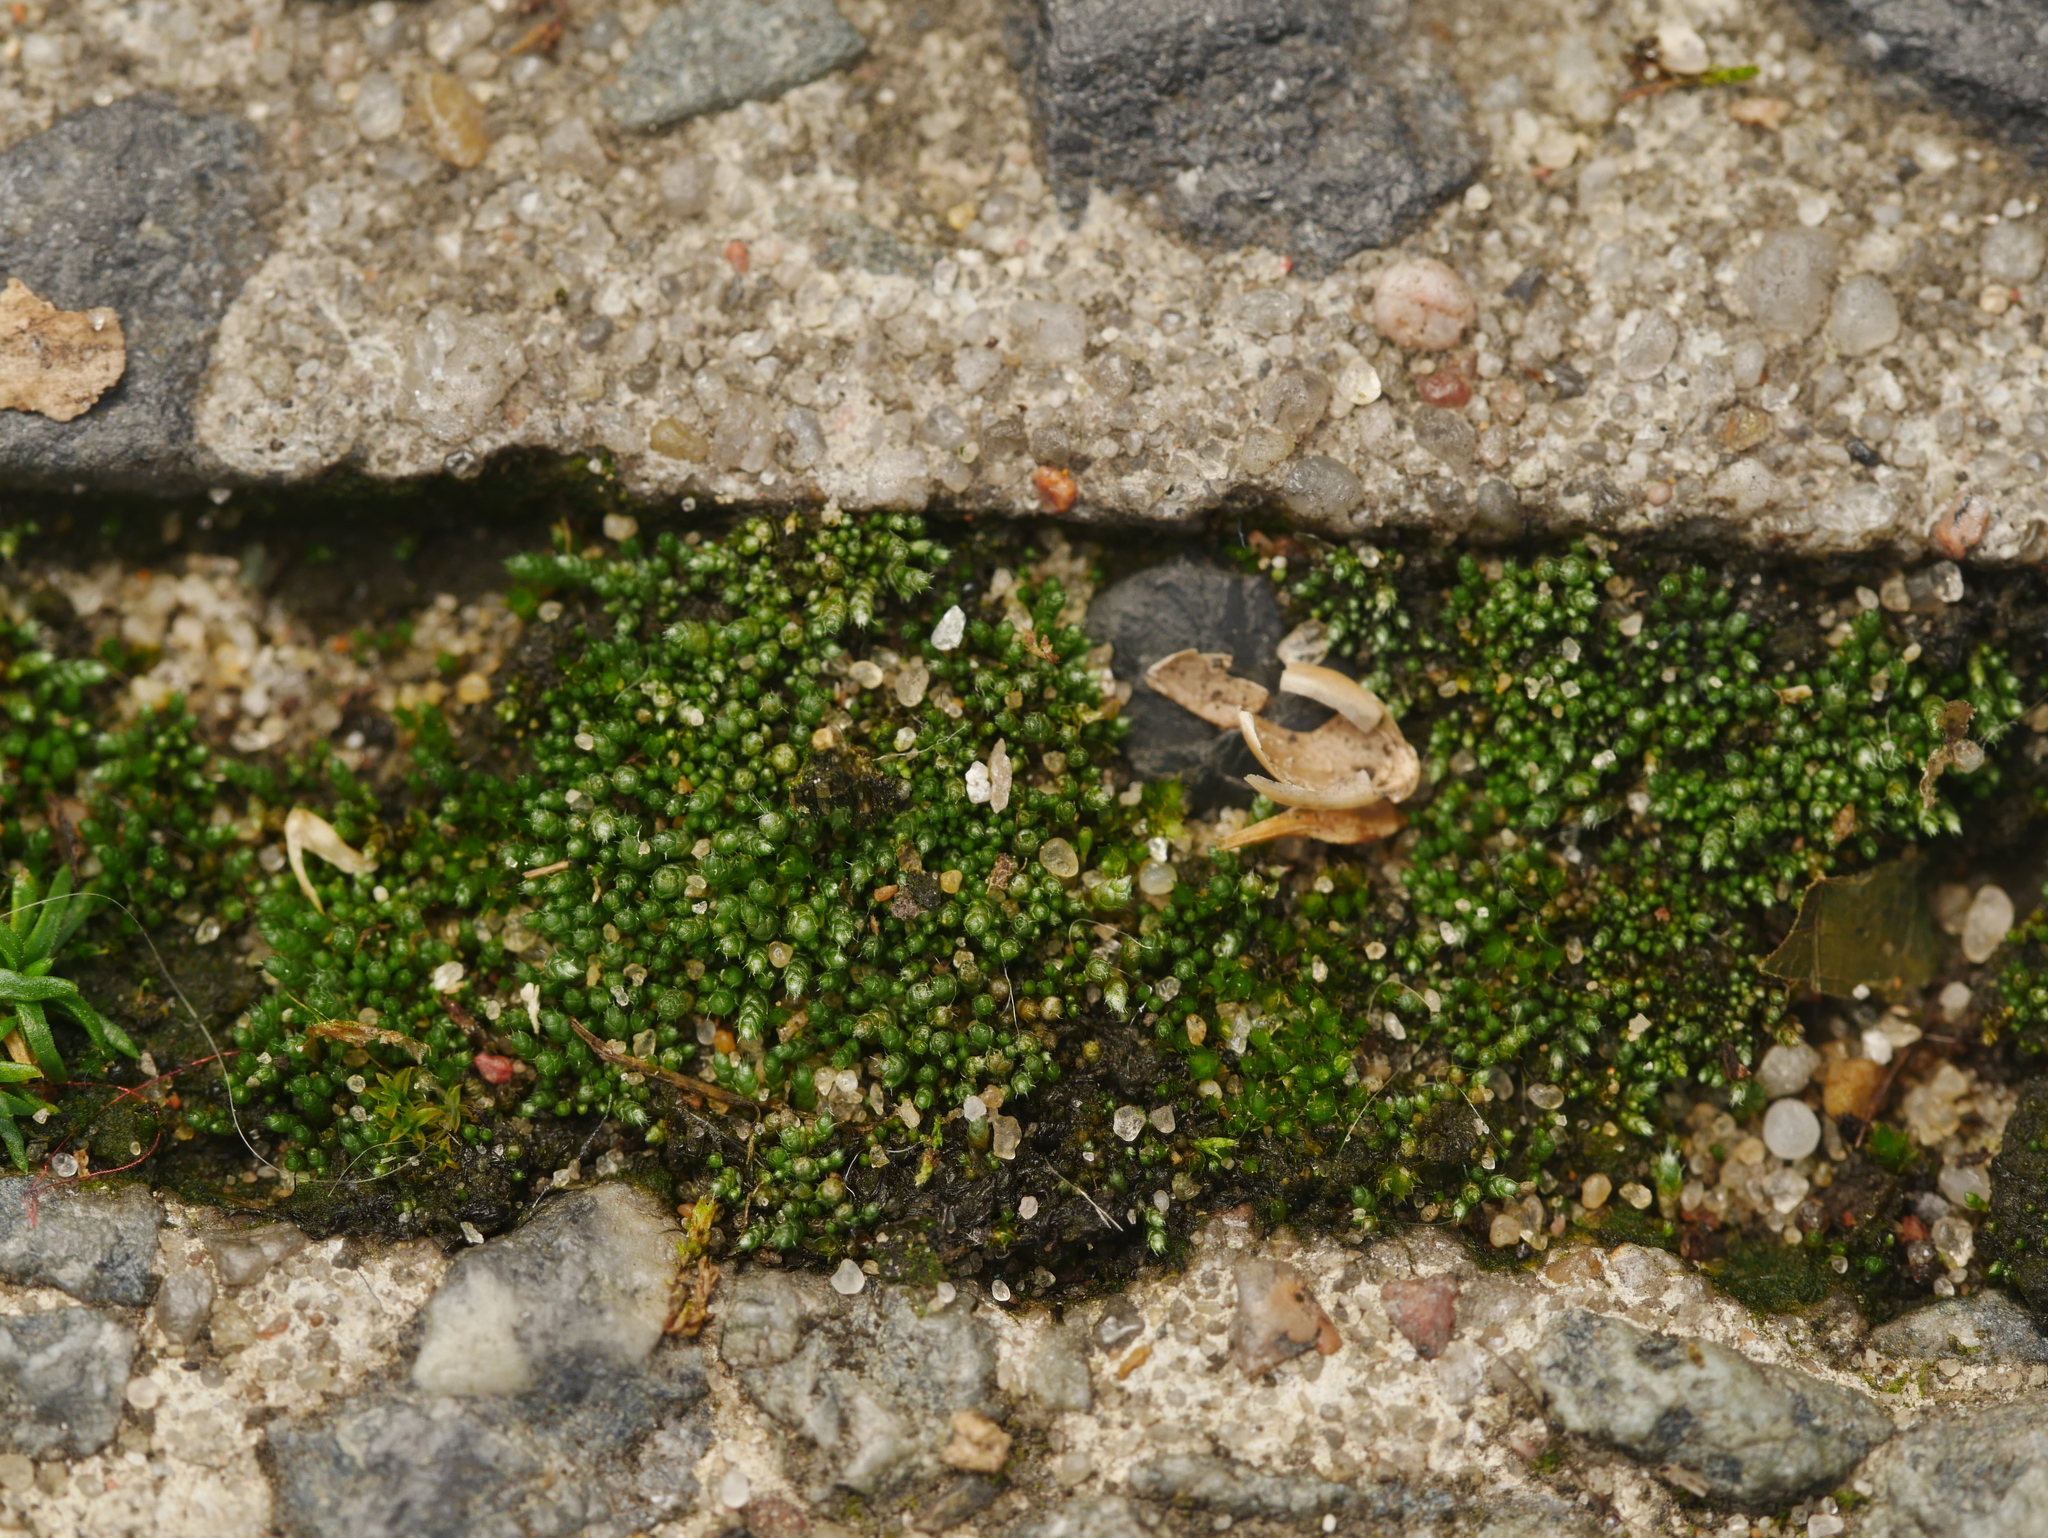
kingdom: Plantae
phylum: Bryophyta
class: Bryopsida
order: Bryales
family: Bryaceae
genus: Bryum
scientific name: Bryum argenteum
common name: Silver-moss
